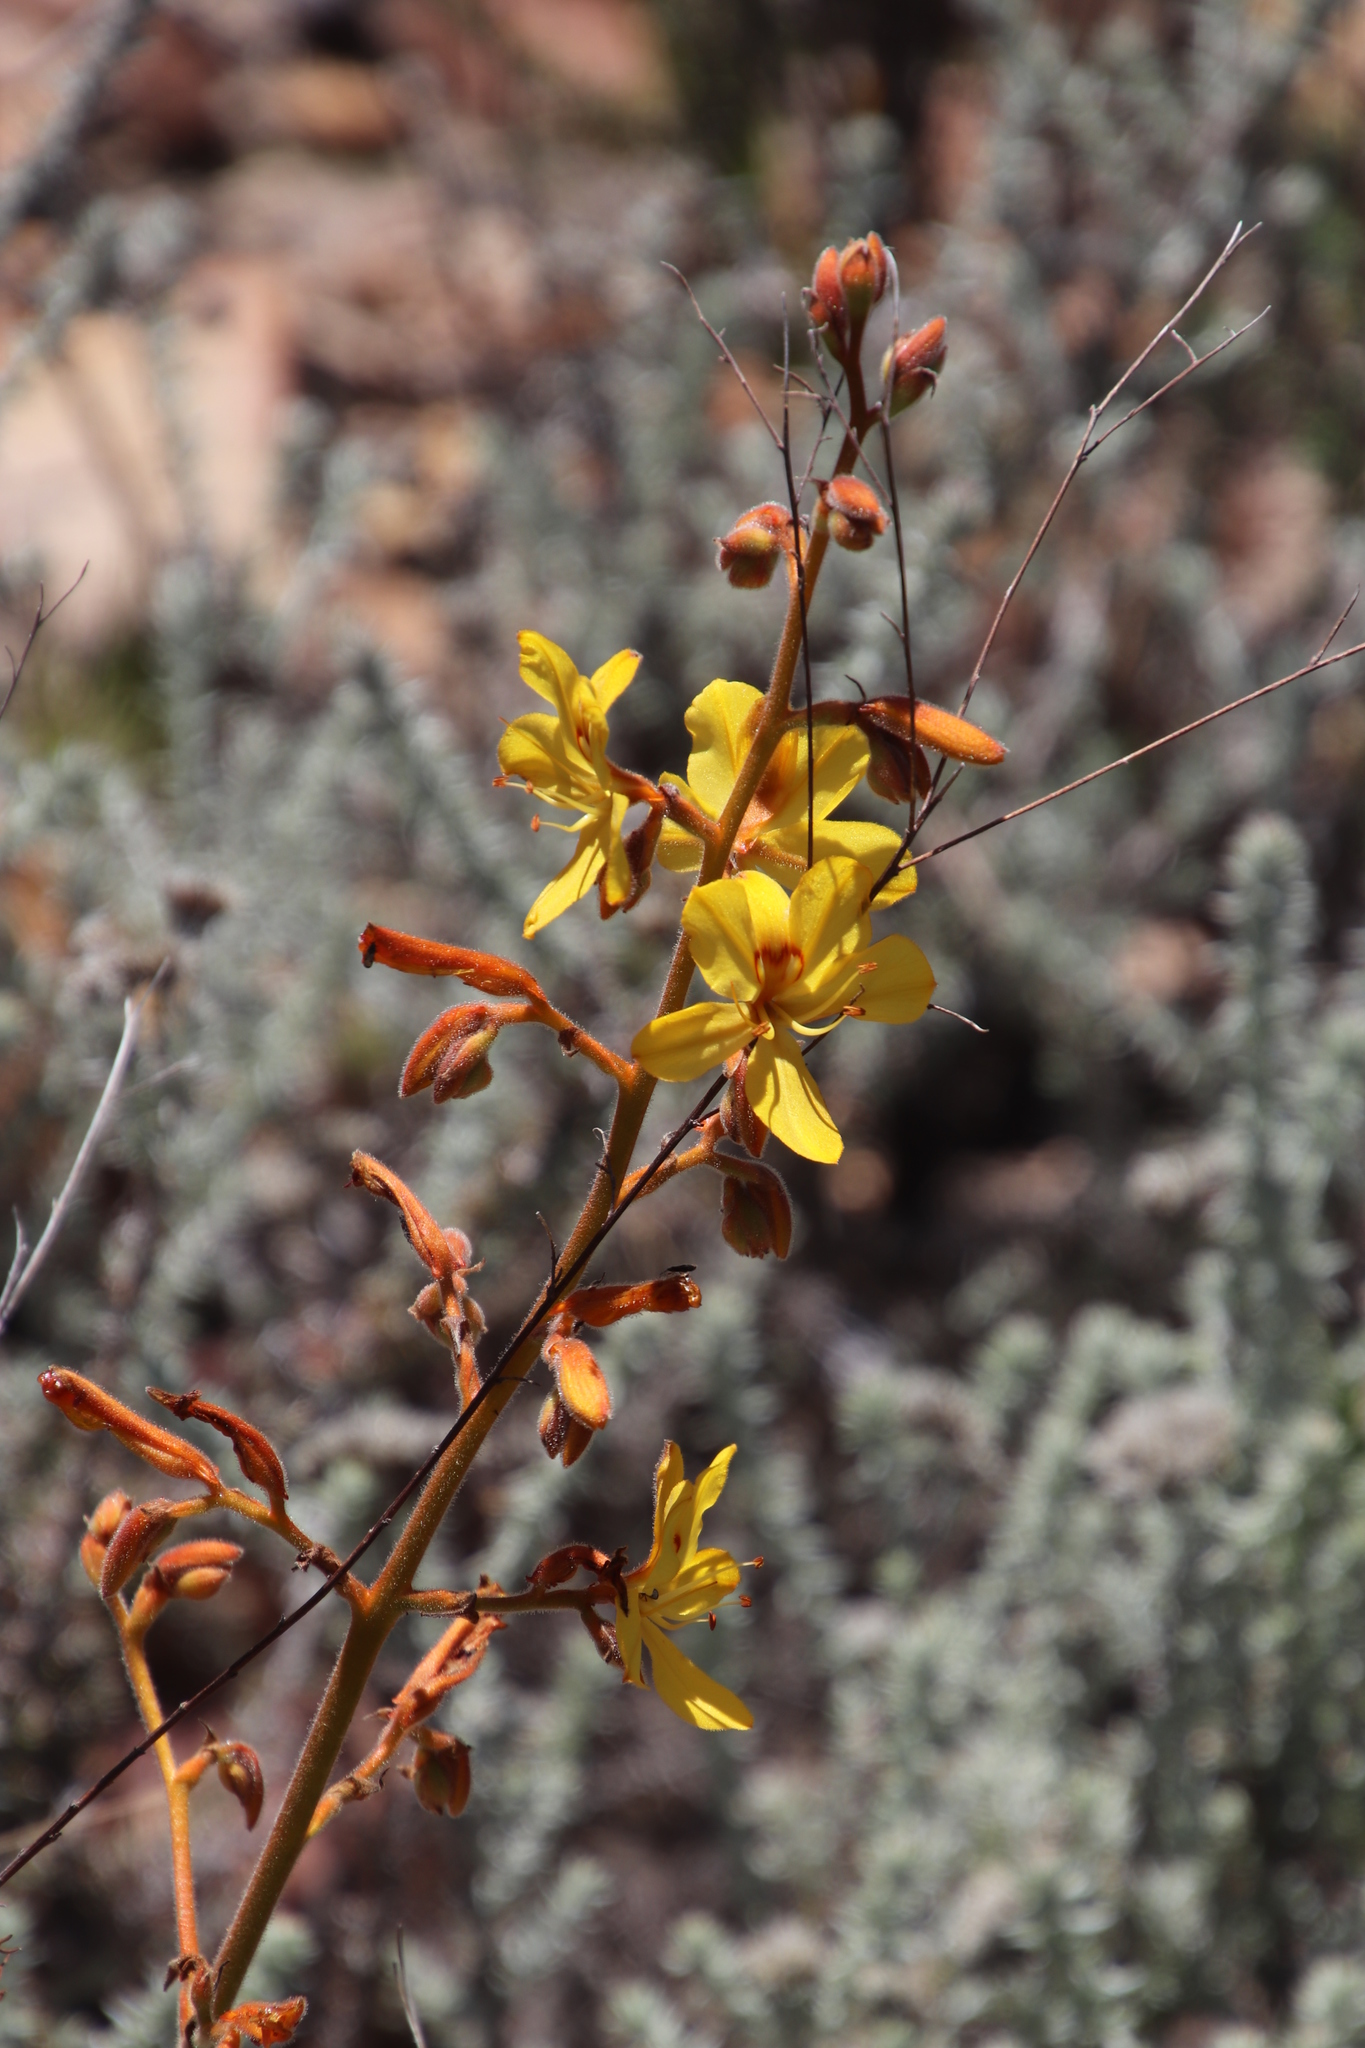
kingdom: Plantae
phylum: Tracheophyta
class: Liliopsida
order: Commelinales
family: Haemodoraceae
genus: Wachendorfia
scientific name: Wachendorfia paniculata
